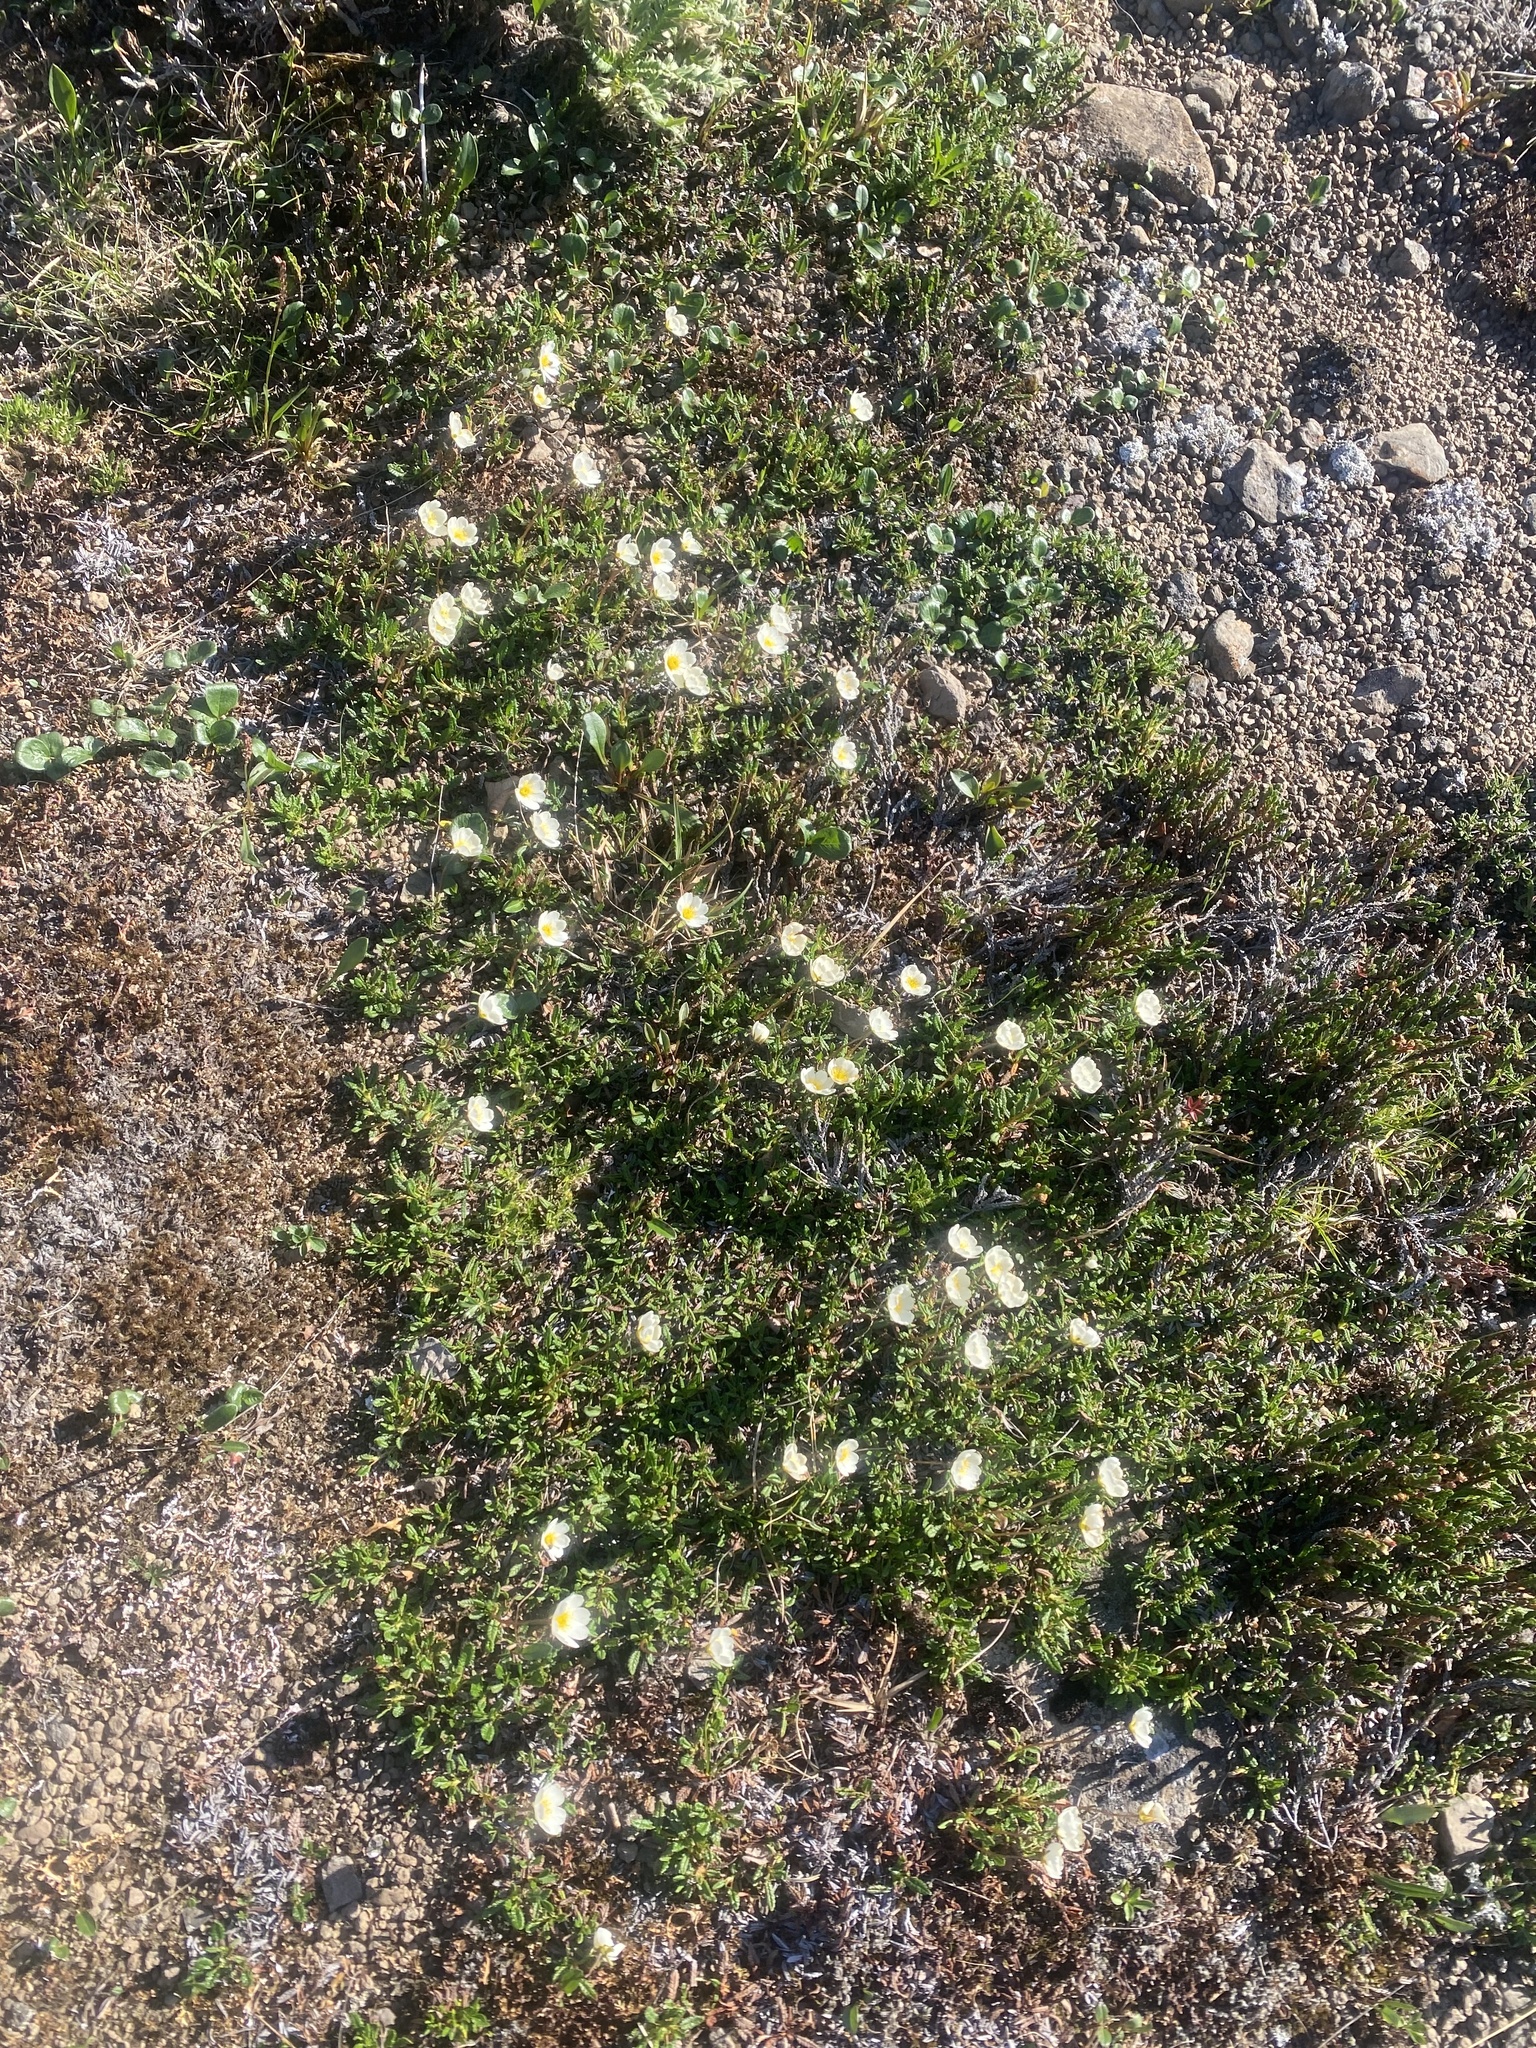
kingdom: Plantae
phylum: Tracheophyta
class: Magnoliopsida
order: Rosales
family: Rosaceae
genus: Dryas
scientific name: Dryas octopetala
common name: Eight-petal mountain-avens
